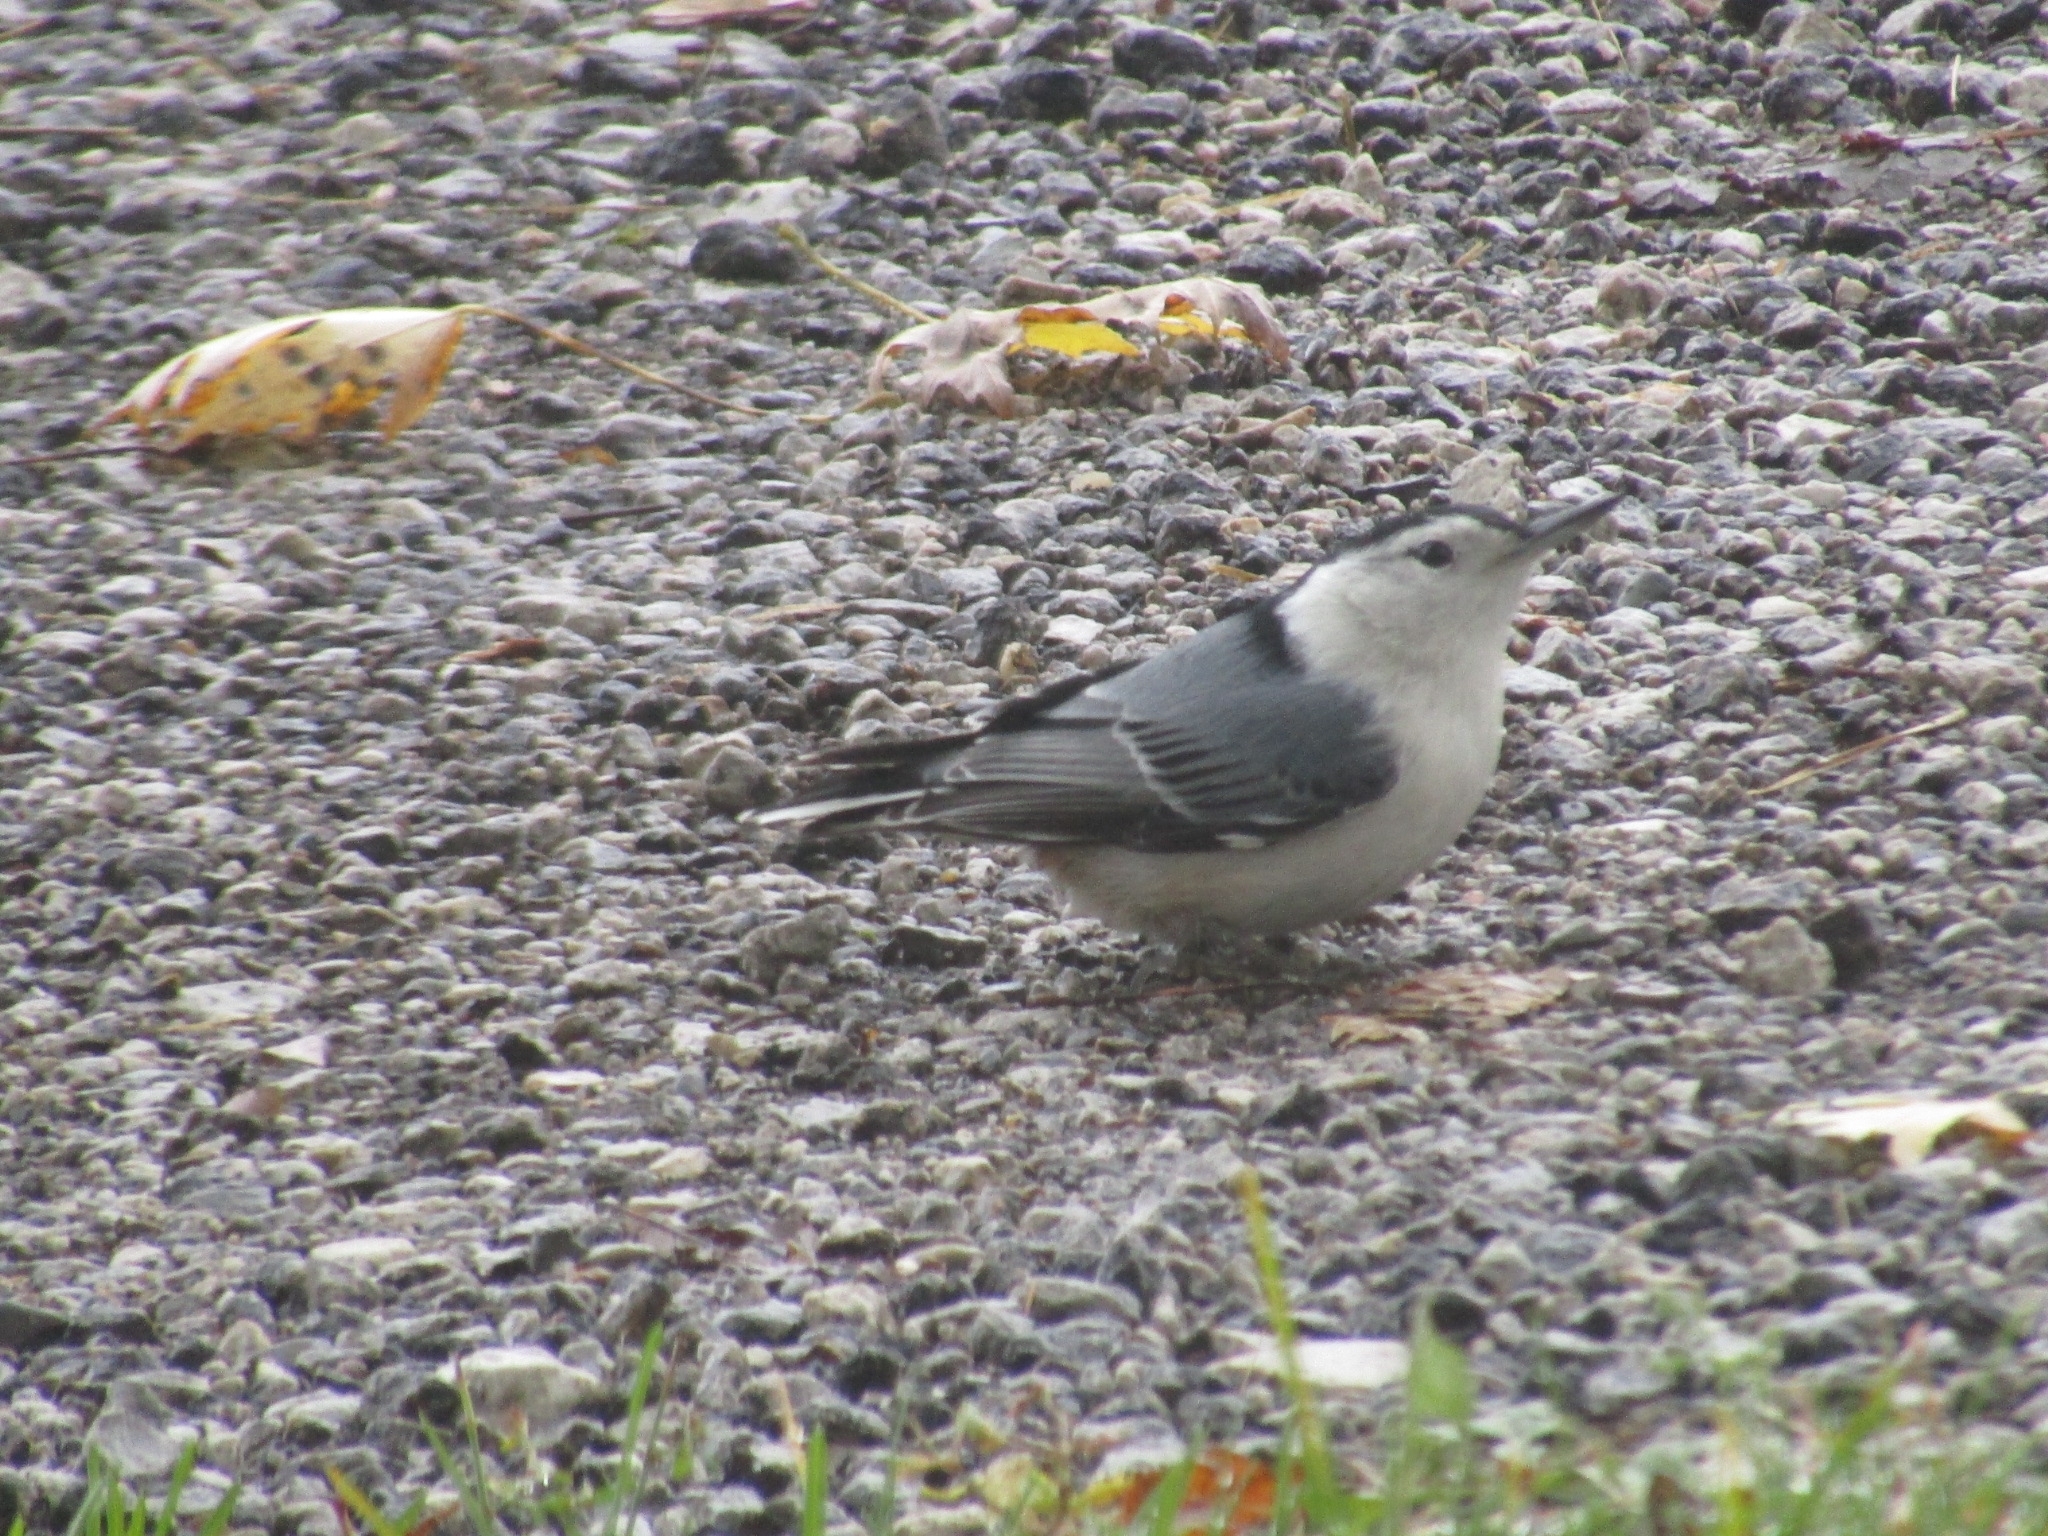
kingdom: Animalia
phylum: Chordata
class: Aves
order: Passeriformes
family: Sittidae
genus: Sitta
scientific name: Sitta carolinensis
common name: White-breasted nuthatch
